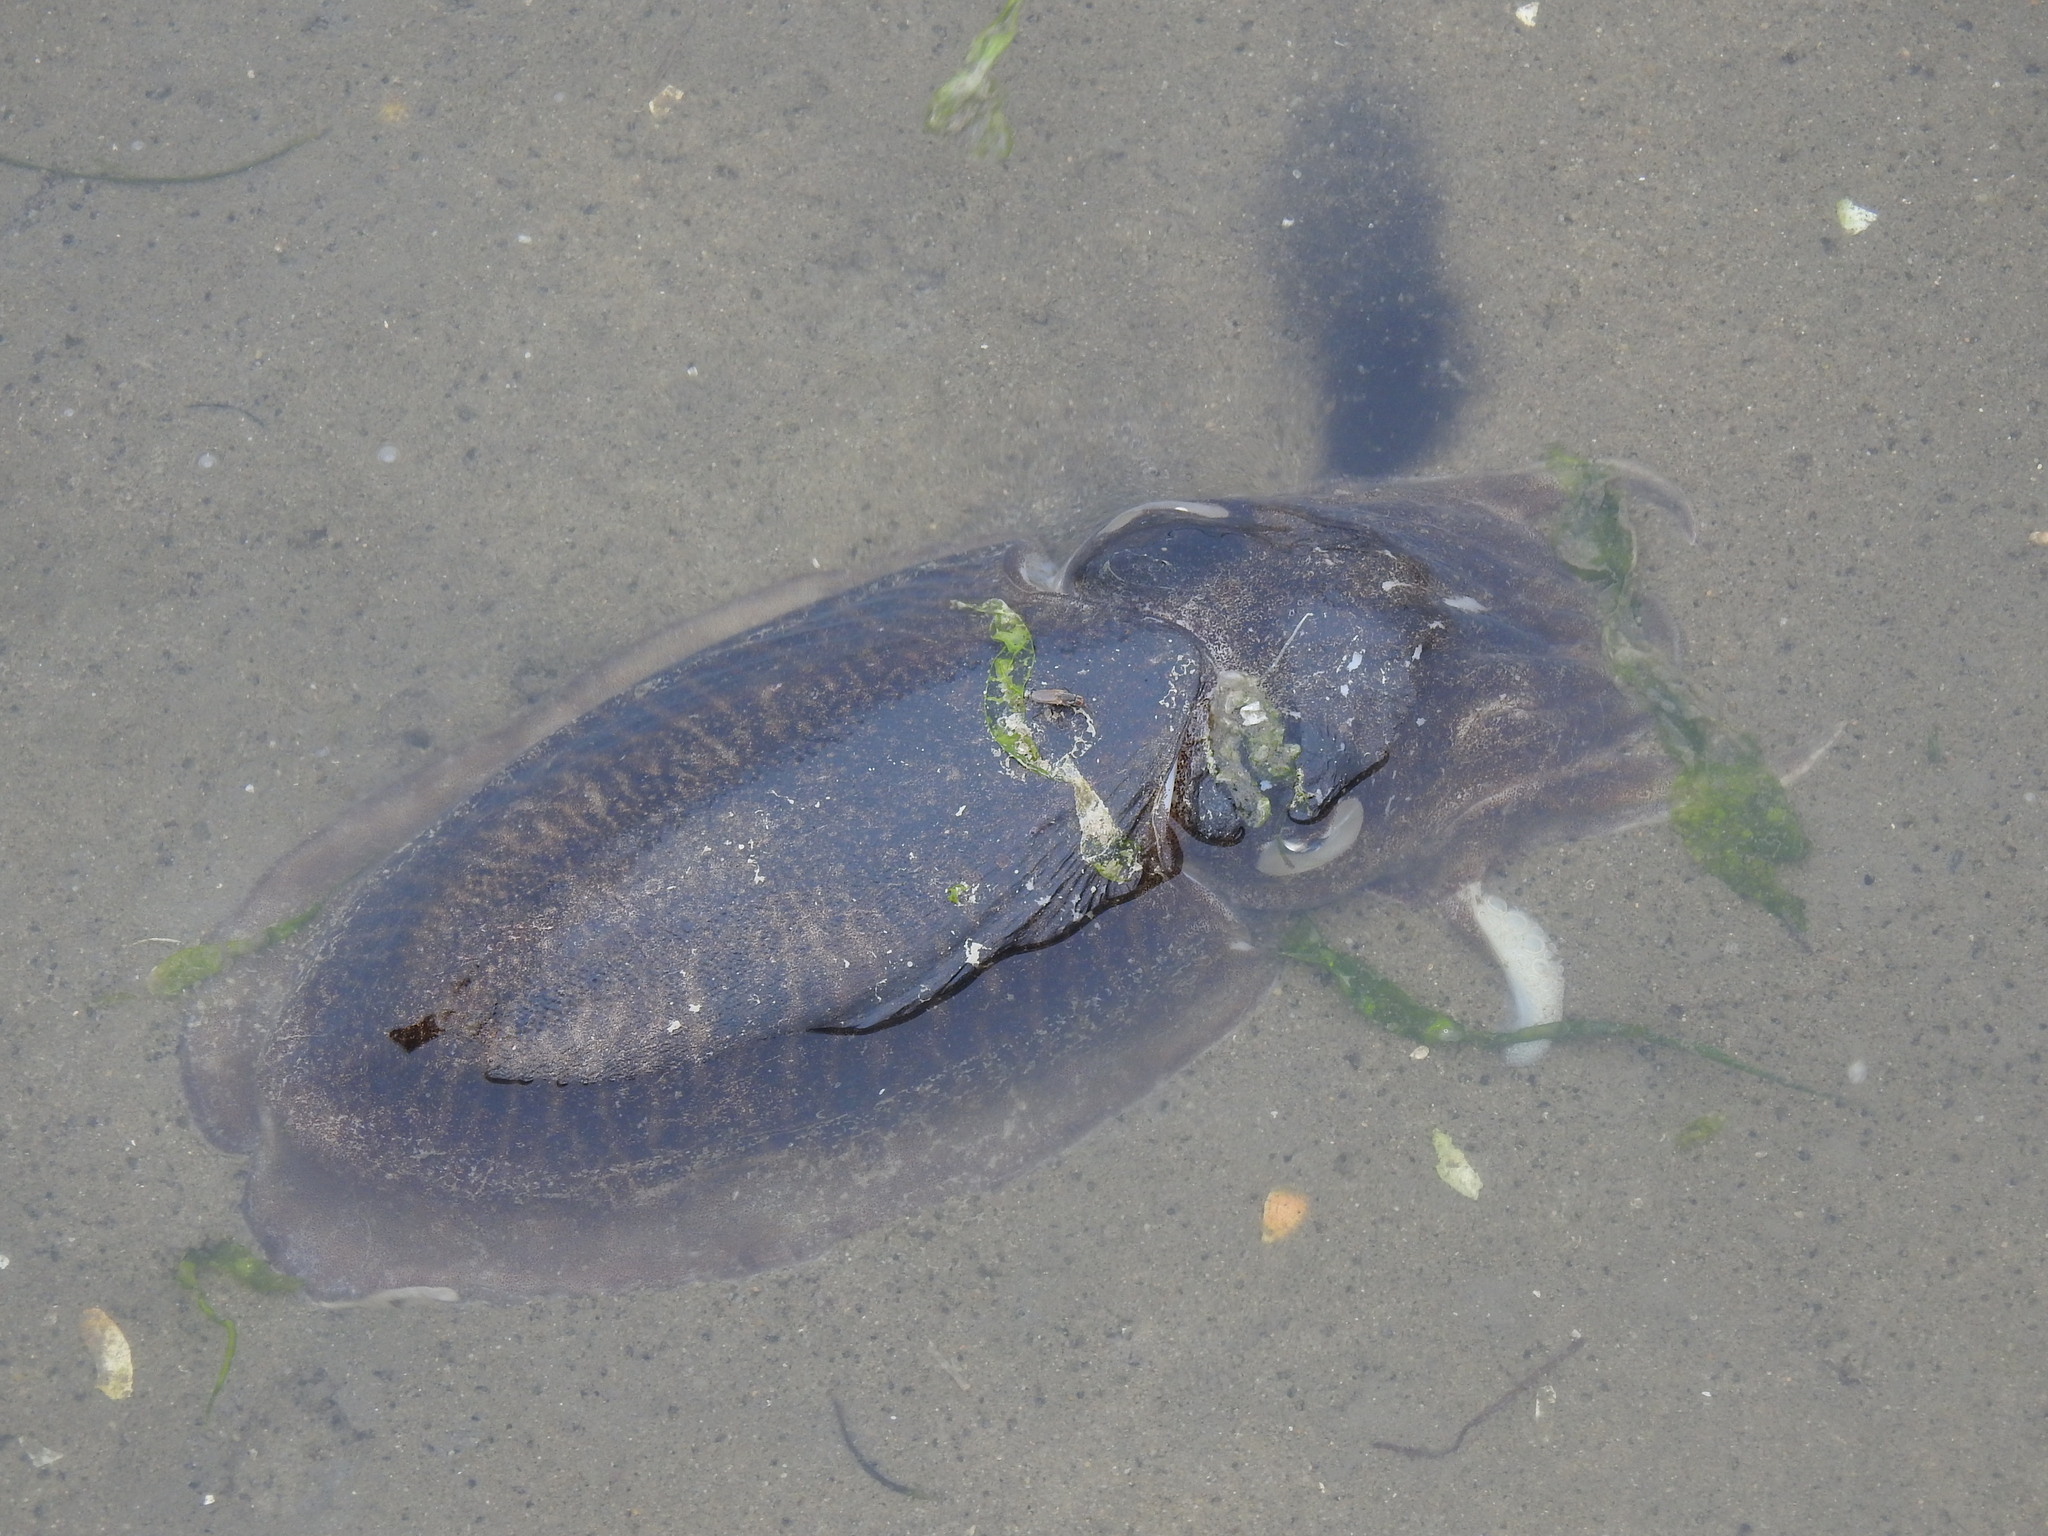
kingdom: Animalia
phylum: Mollusca
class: Cephalopoda
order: Sepiida
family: Sepiidae
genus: Sepia
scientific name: Sepia officinalis
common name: Common cuttlefish
